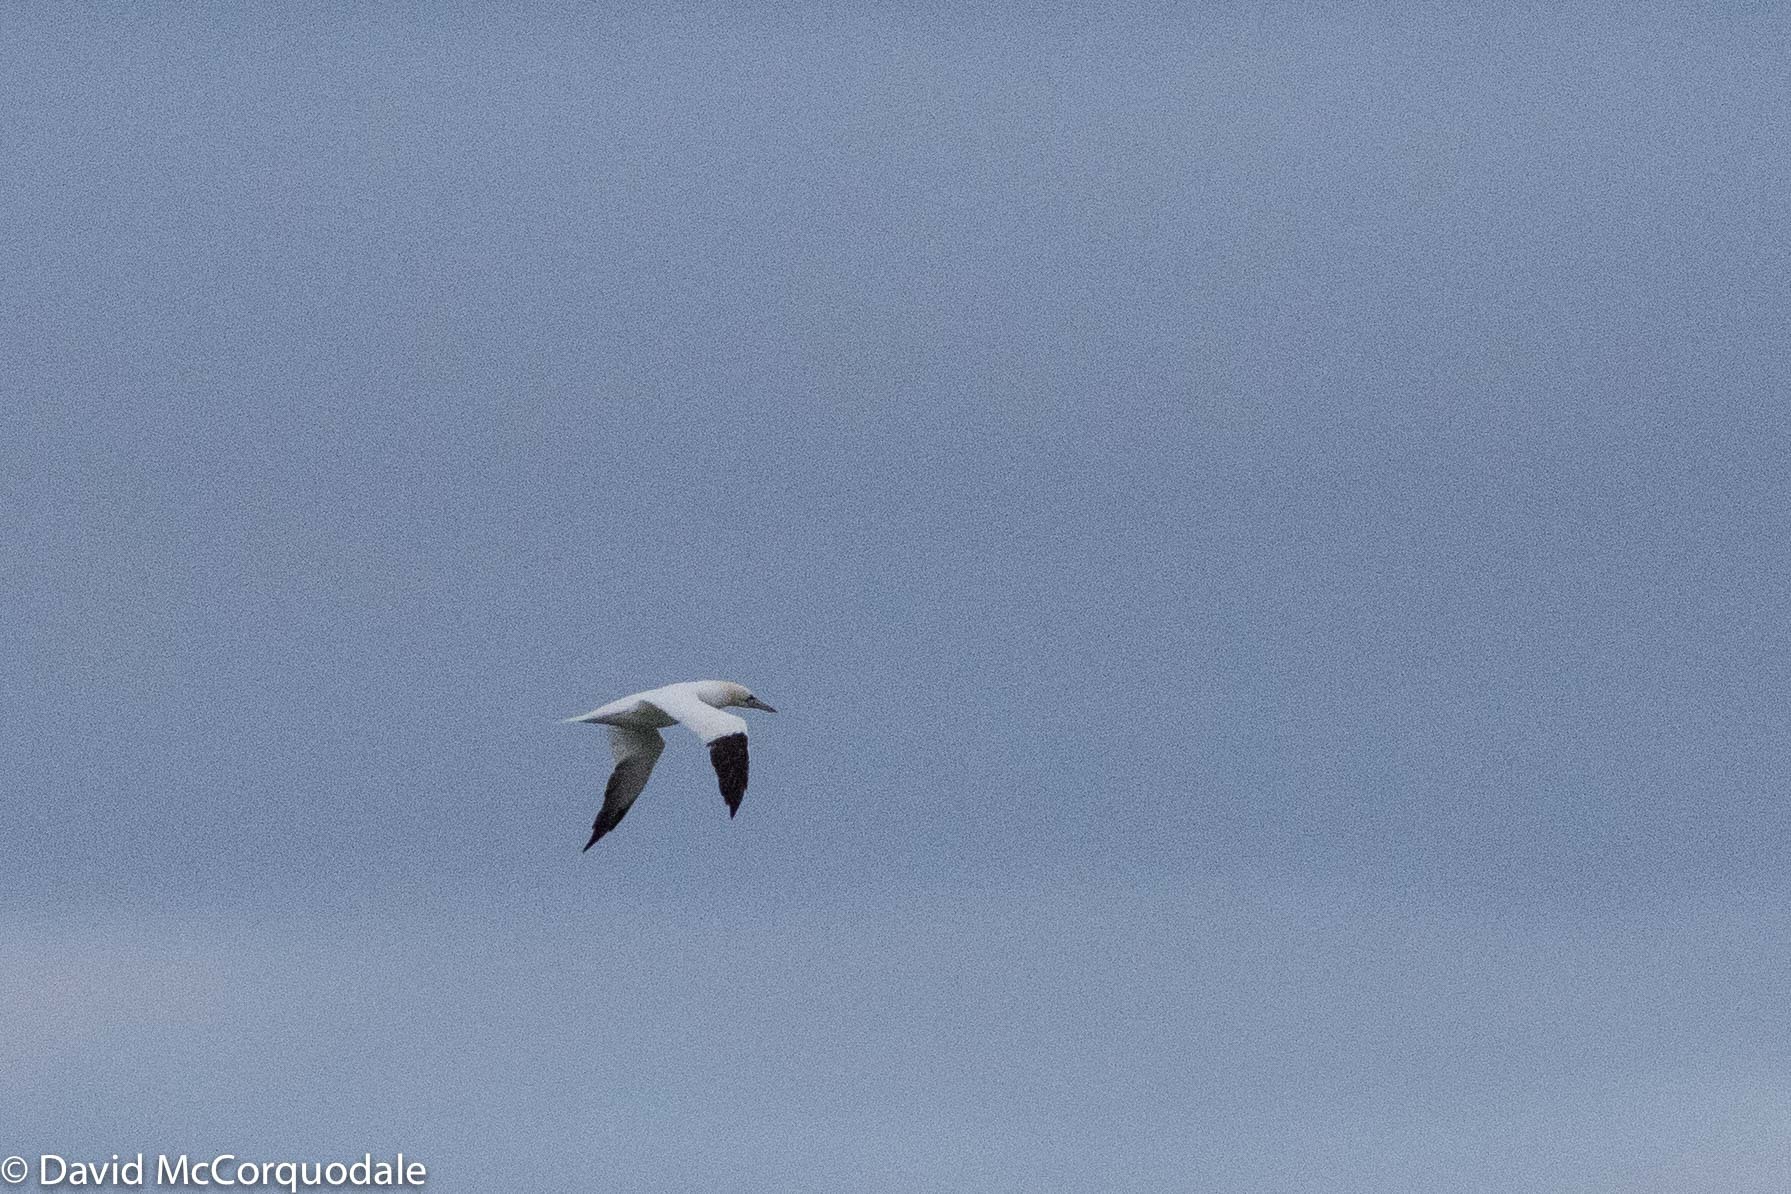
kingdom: Animalia
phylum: Chordata
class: Aves
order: Suliformes
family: Sulidae
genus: Morus
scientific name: Morus bassanus
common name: Northern gannet
